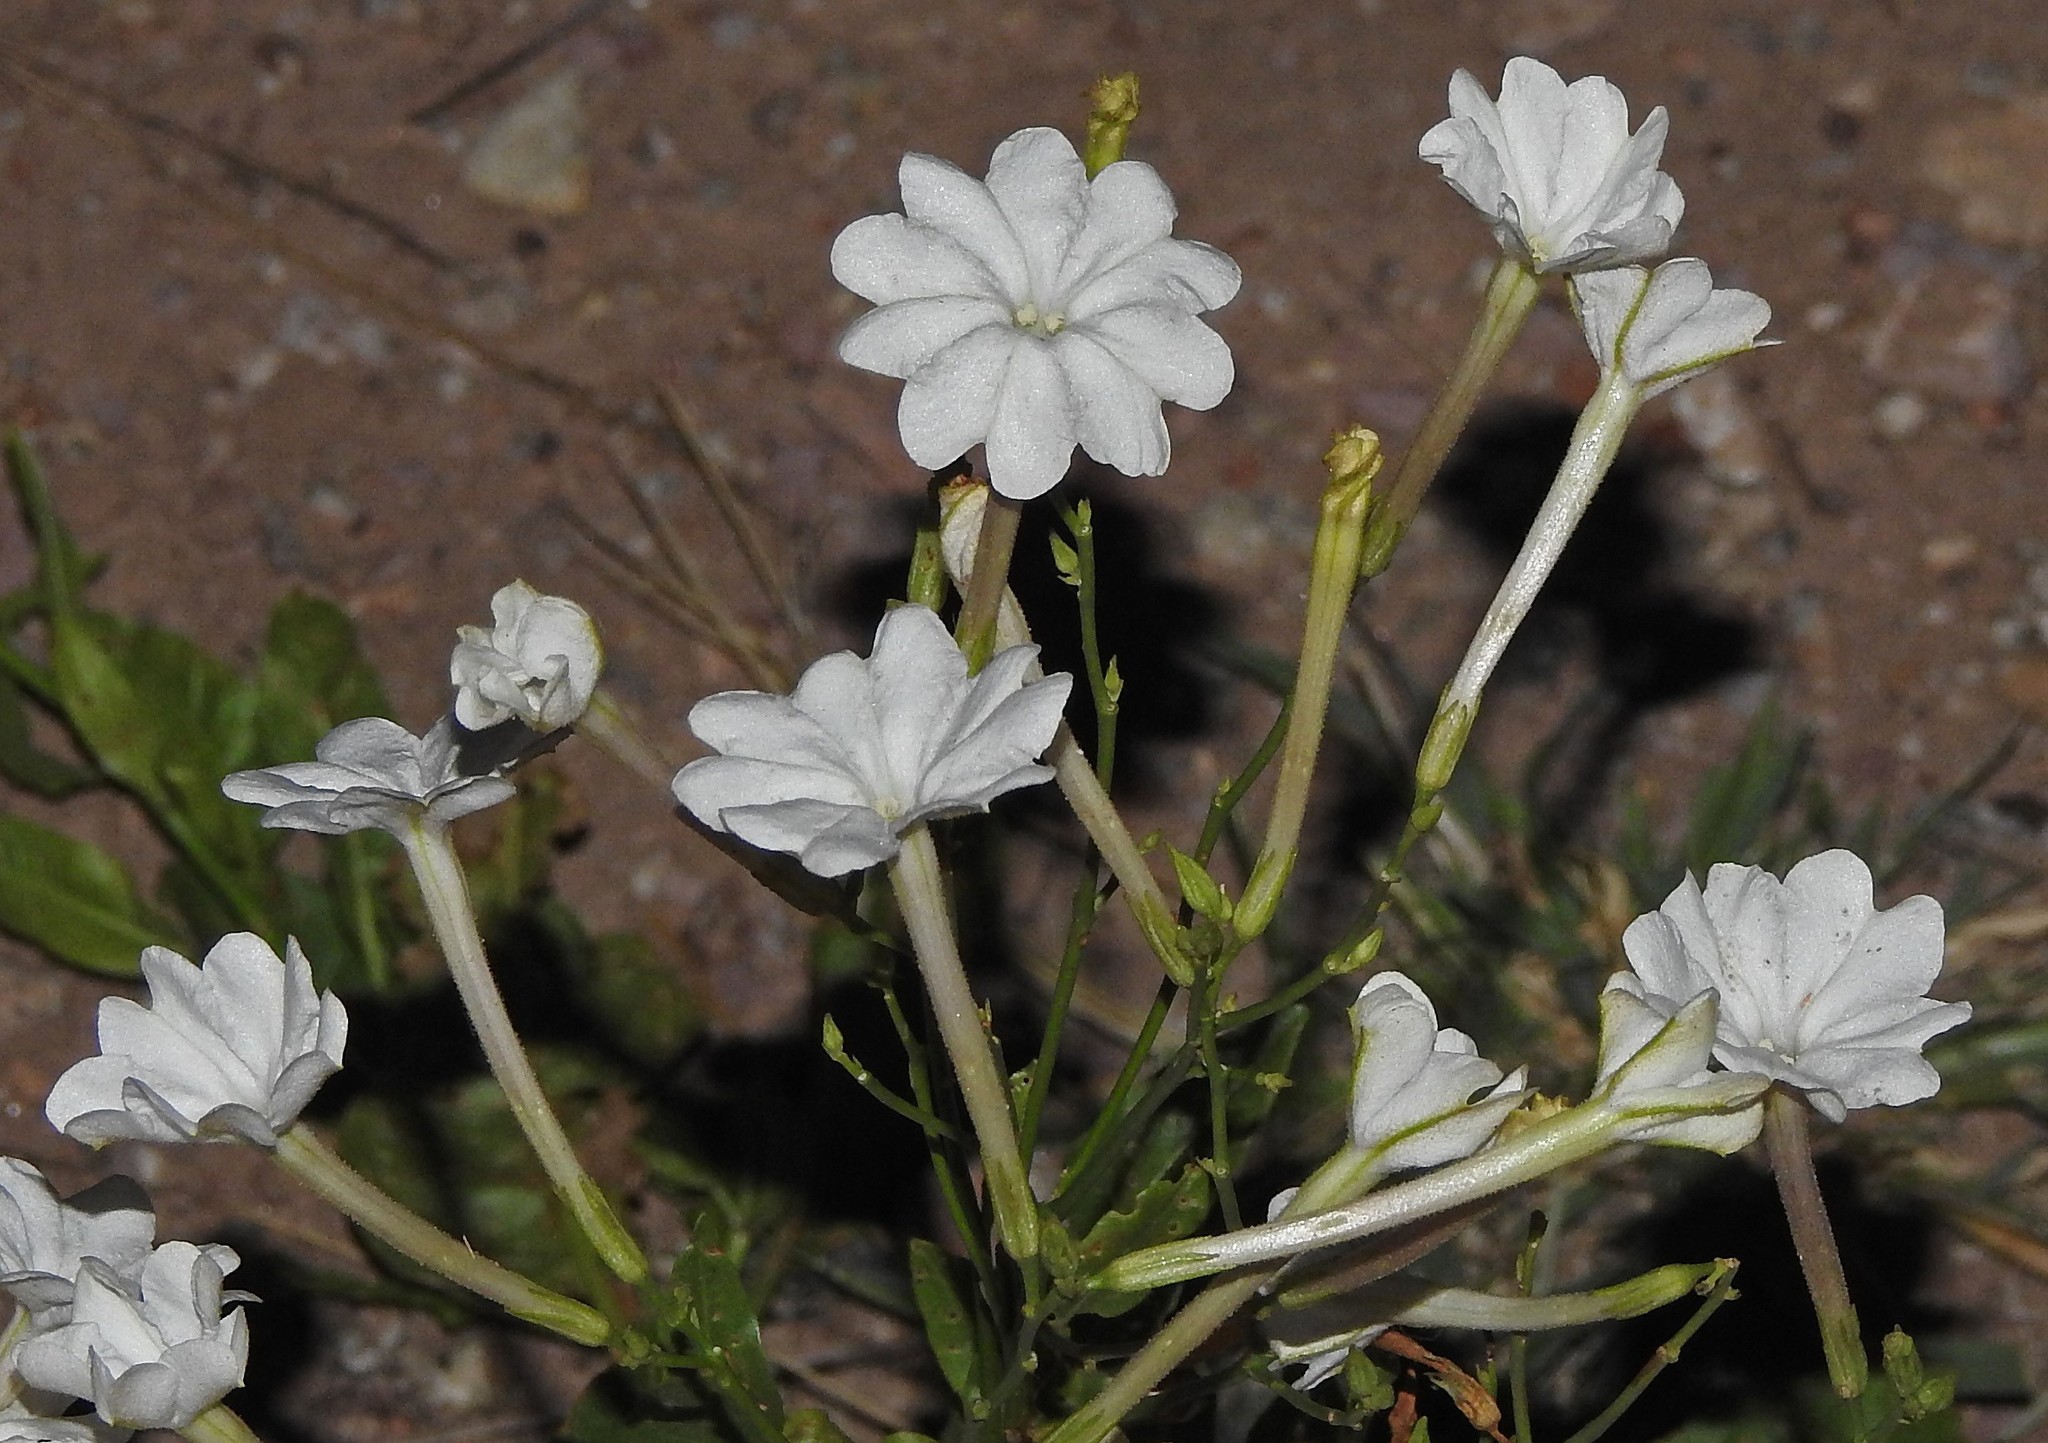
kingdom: Plantae
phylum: Tracheophyta
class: Magnoliopsida
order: Solanales
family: Solanaceae
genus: Nicotiana
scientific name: Nicotiana paa
